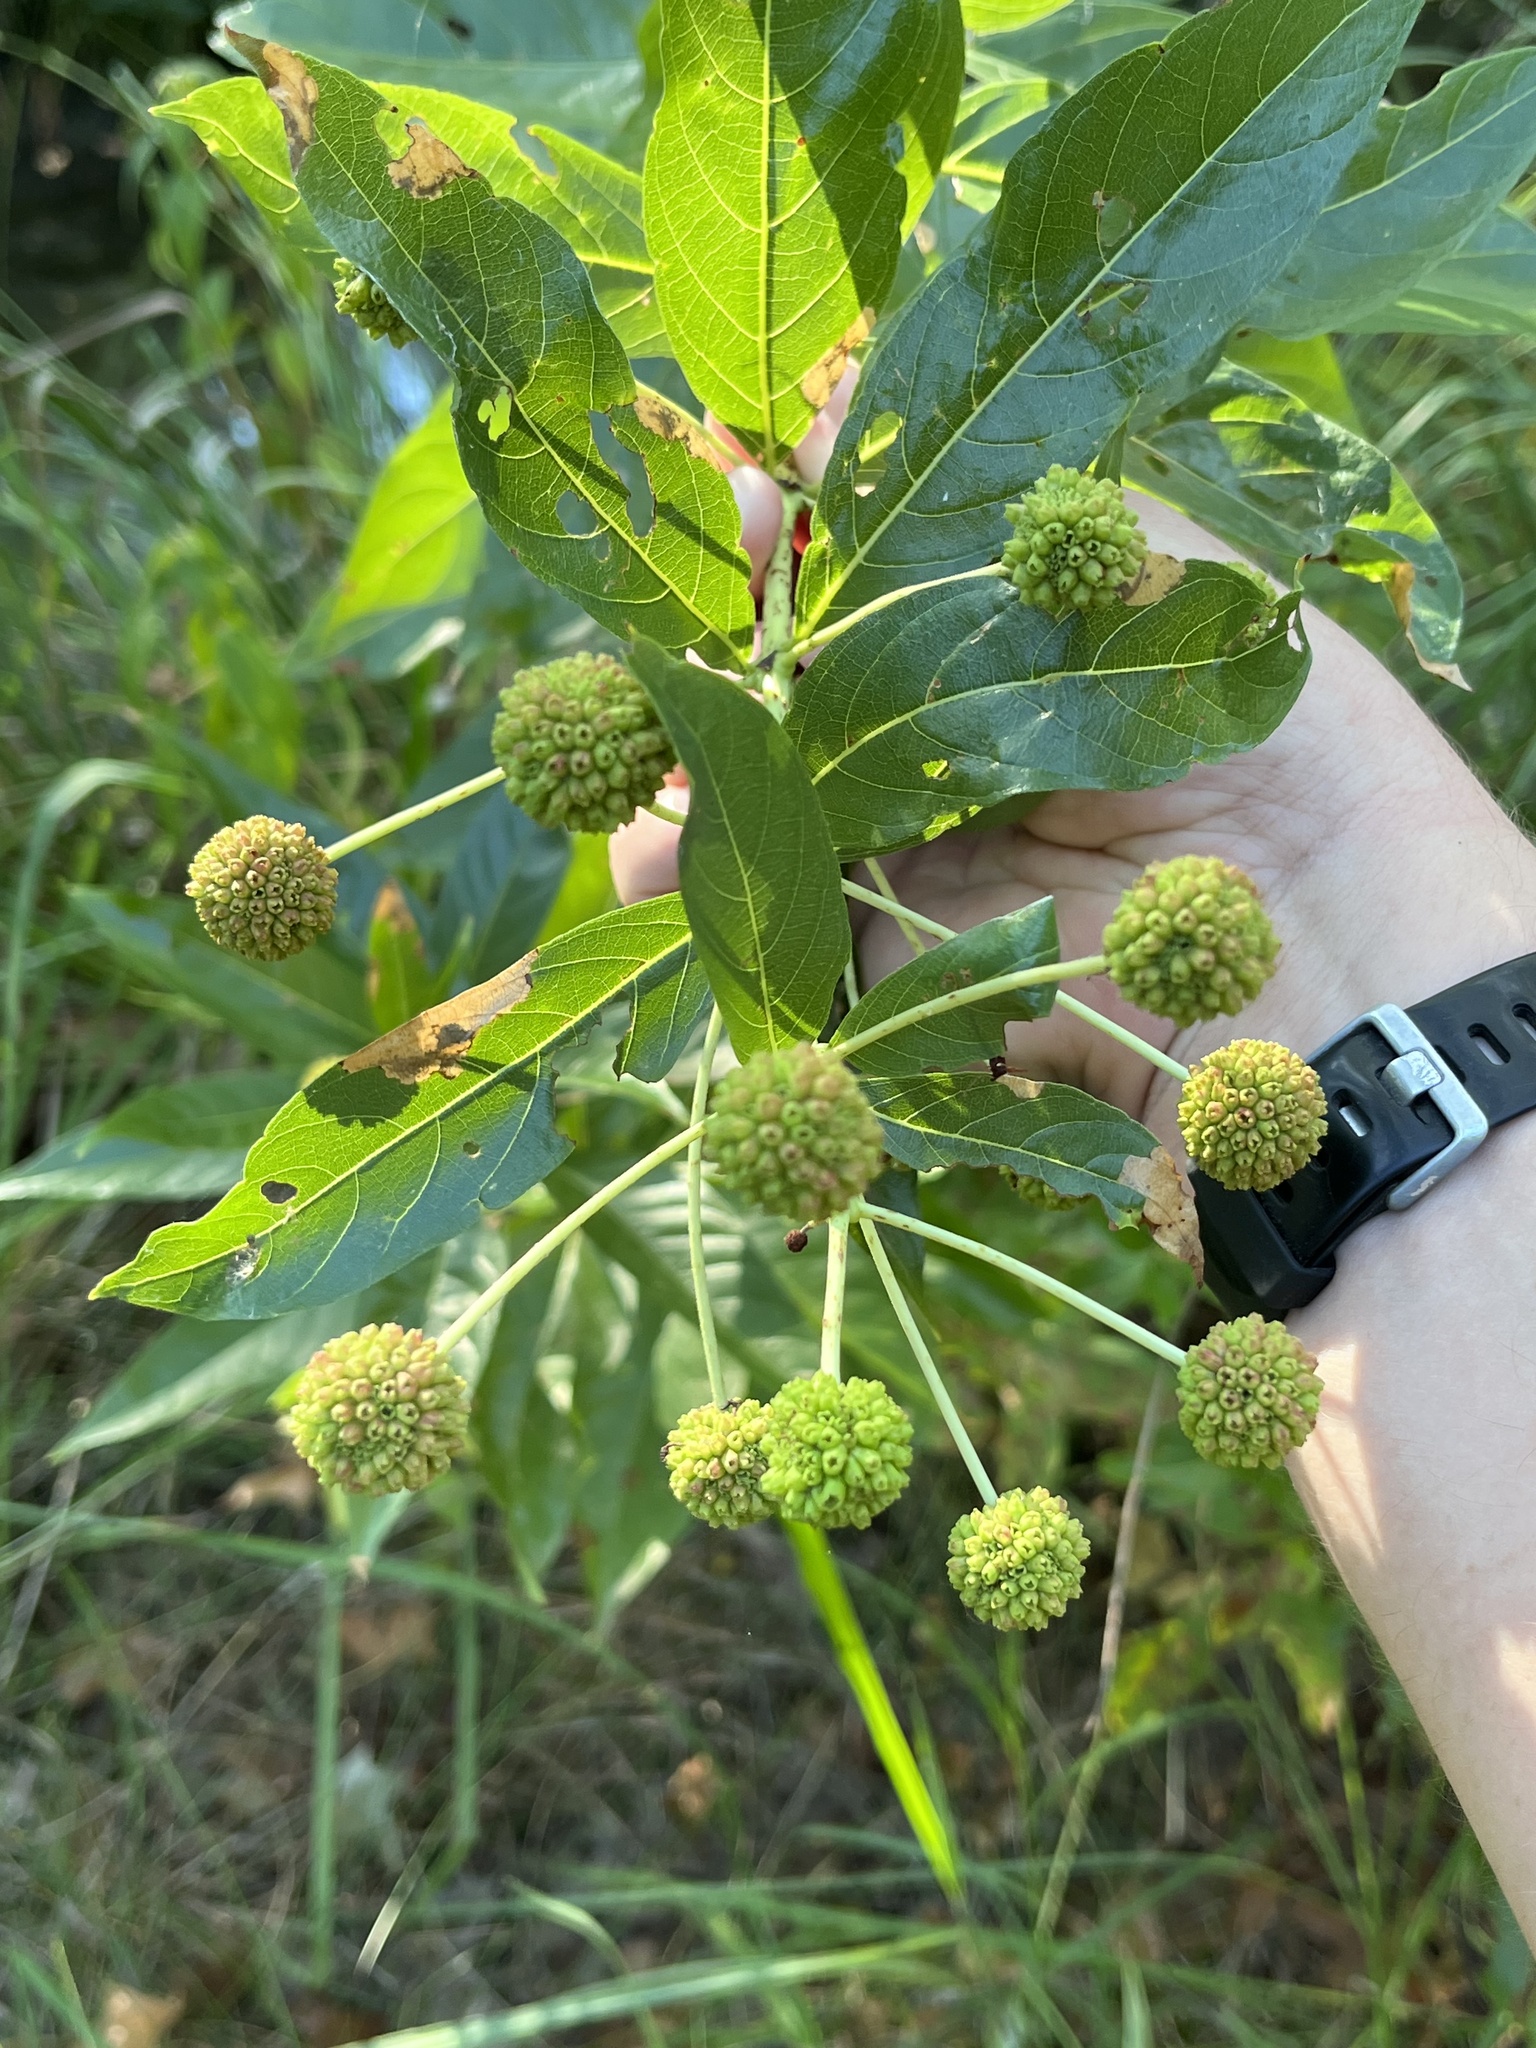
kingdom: Plantae
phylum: Tracheophyta
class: Magnoliopsida
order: Gentianales
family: Rubiaceae
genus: Cephalanthus
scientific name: Cephalanthus occidentalis
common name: Button-willow
